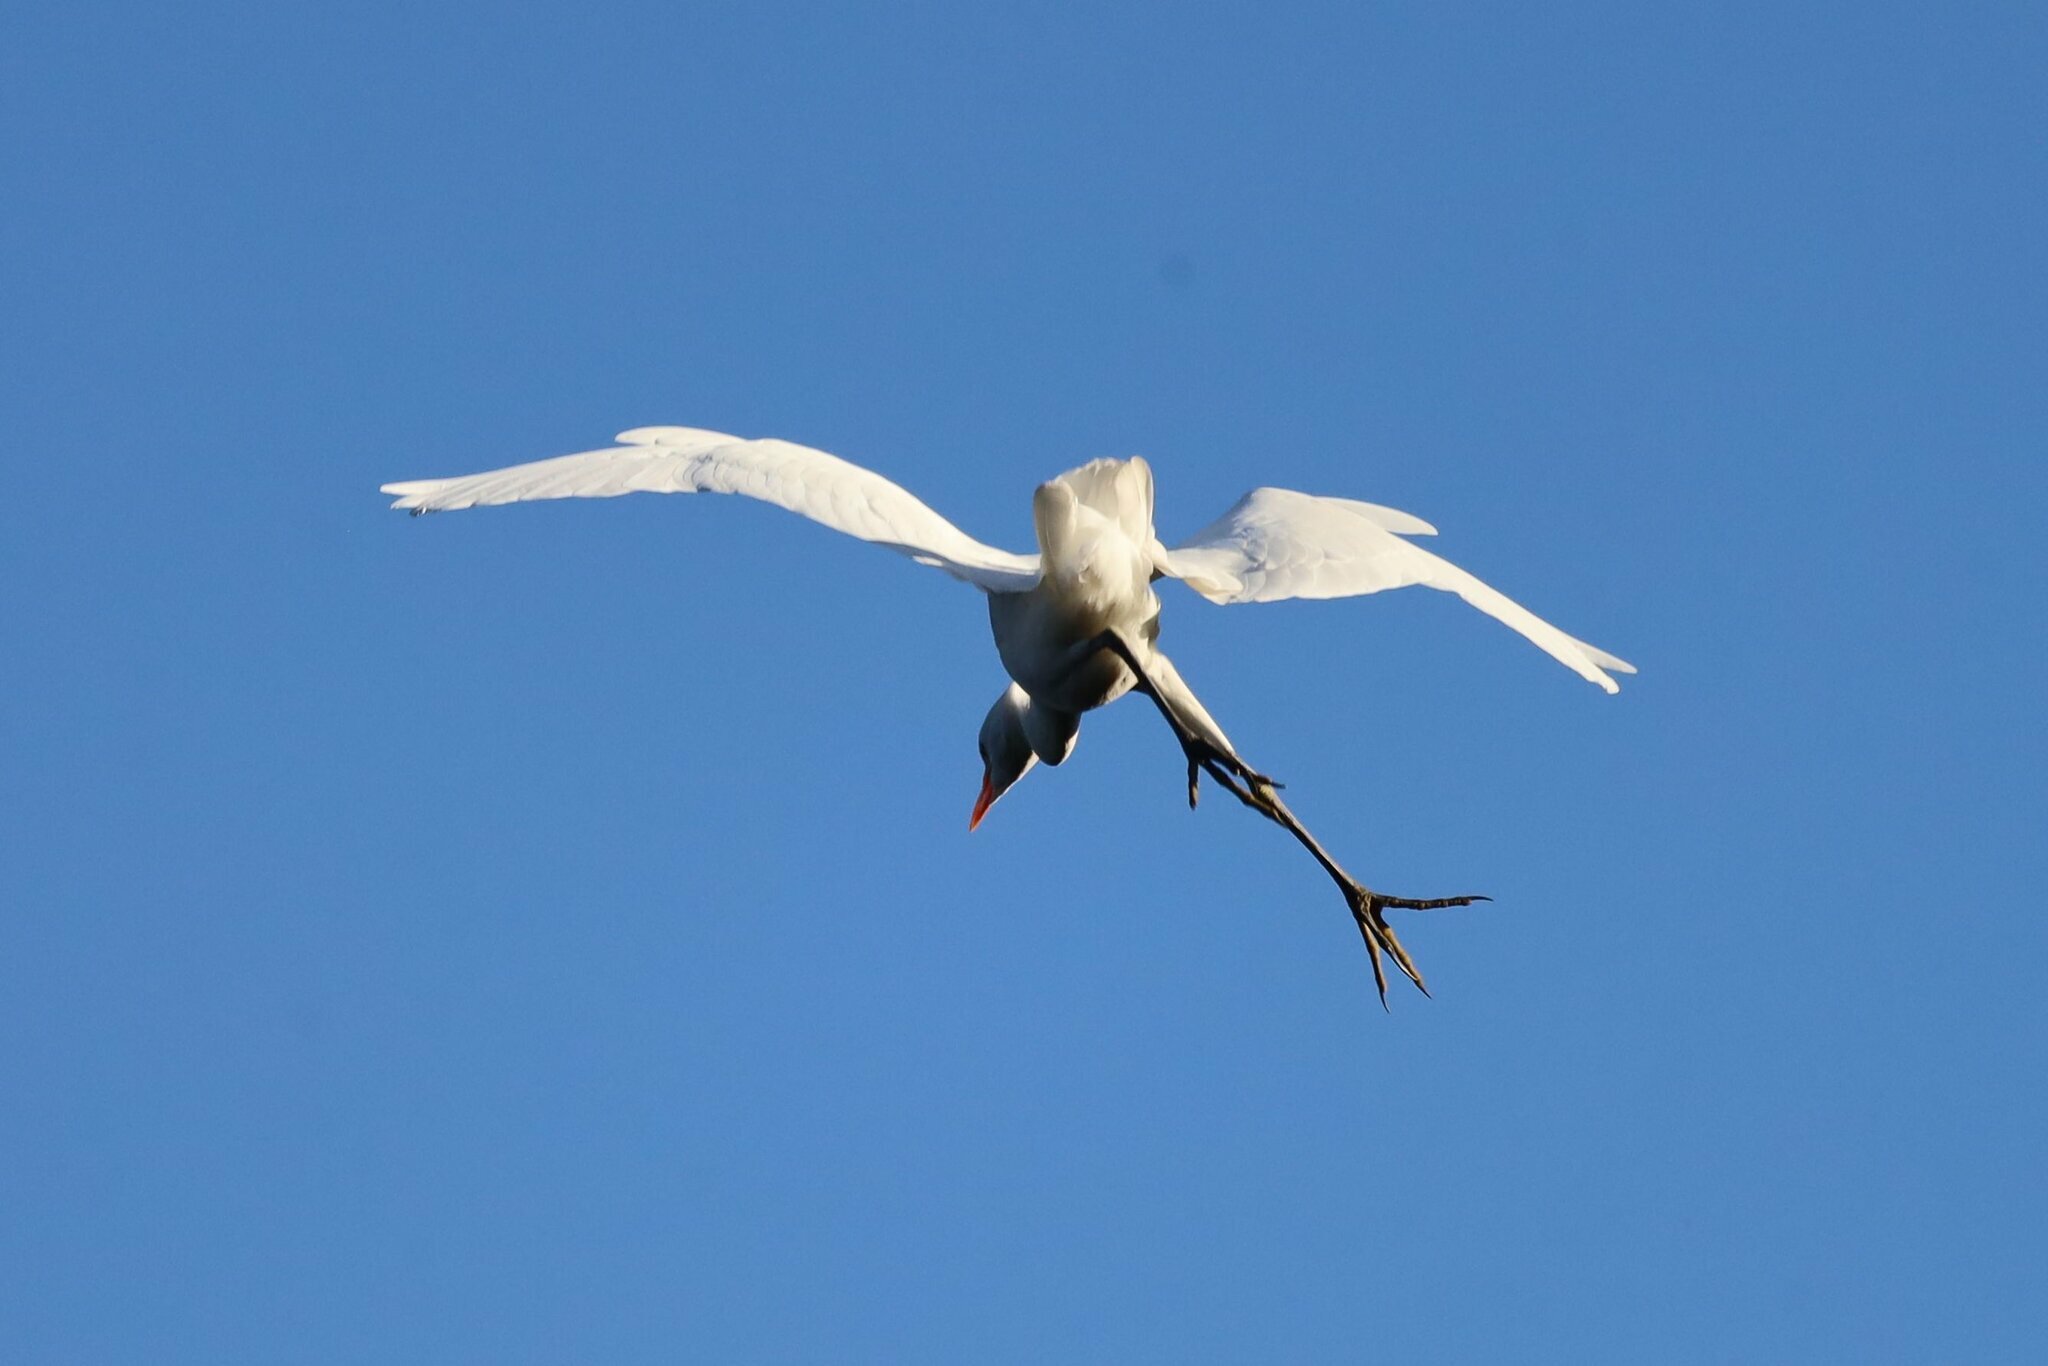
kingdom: Animalia
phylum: Chordata
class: Aves
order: Pelecaniformes
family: Ardeidae
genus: Bubulcus
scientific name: Bubulcus ibis
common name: Cattle egret
